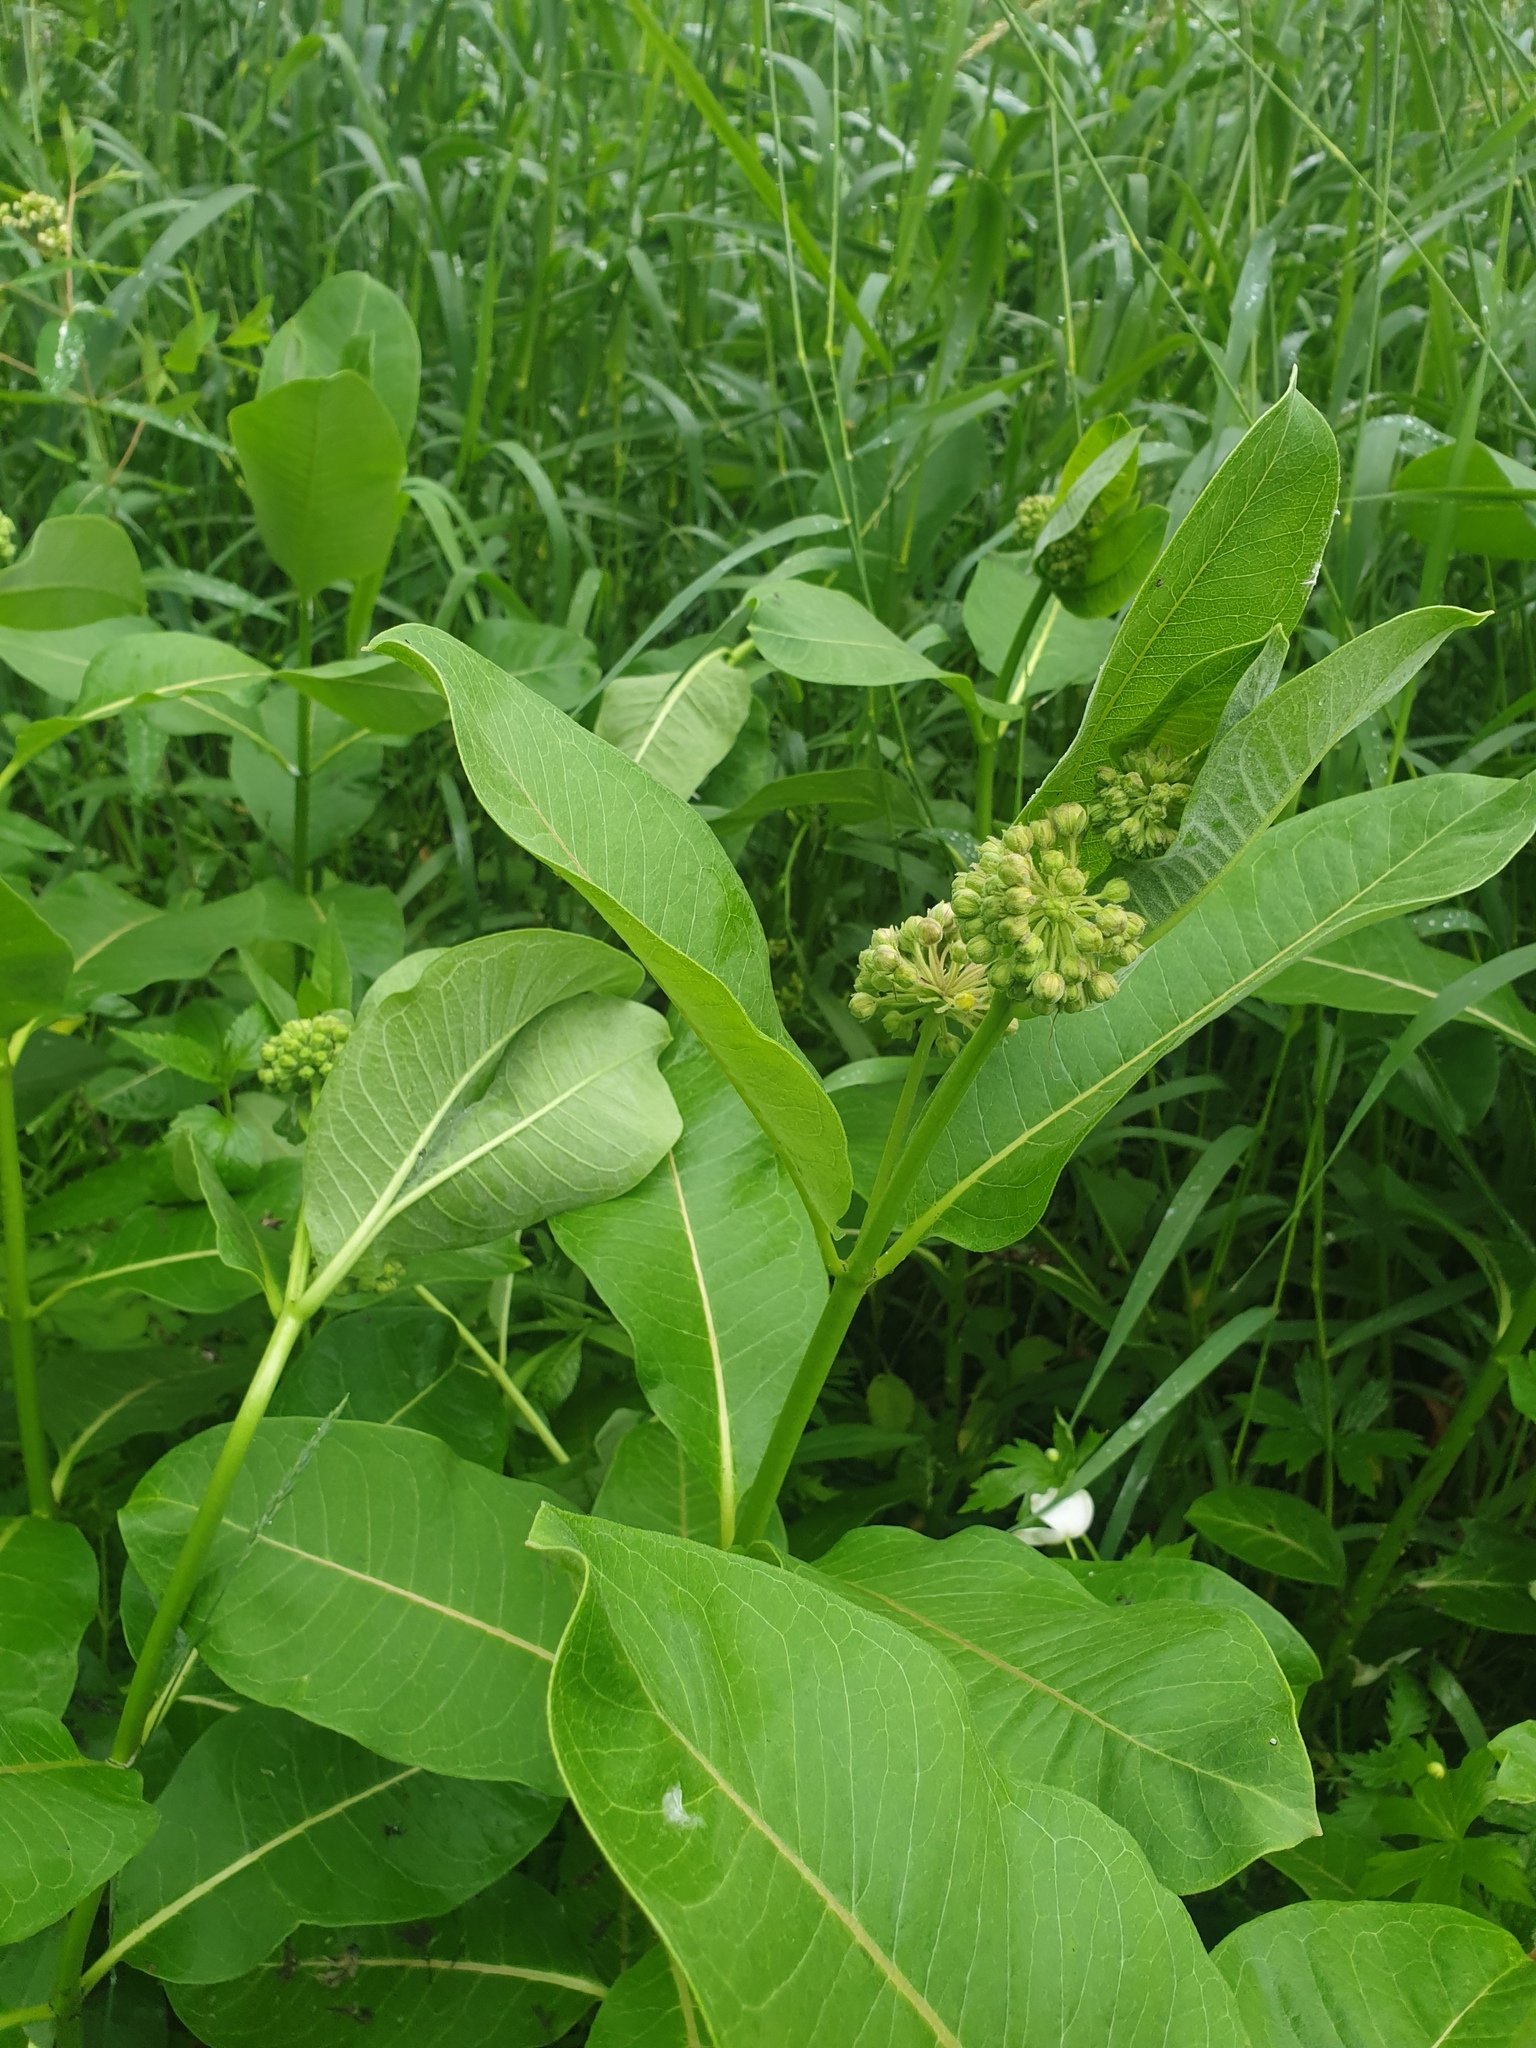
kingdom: Plantae
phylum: Tracheophyta
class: Magnoliopsida
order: Gentianales
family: Apocynaceae
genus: Asclepias
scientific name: Asclepias syriaca
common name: Common milkweed
